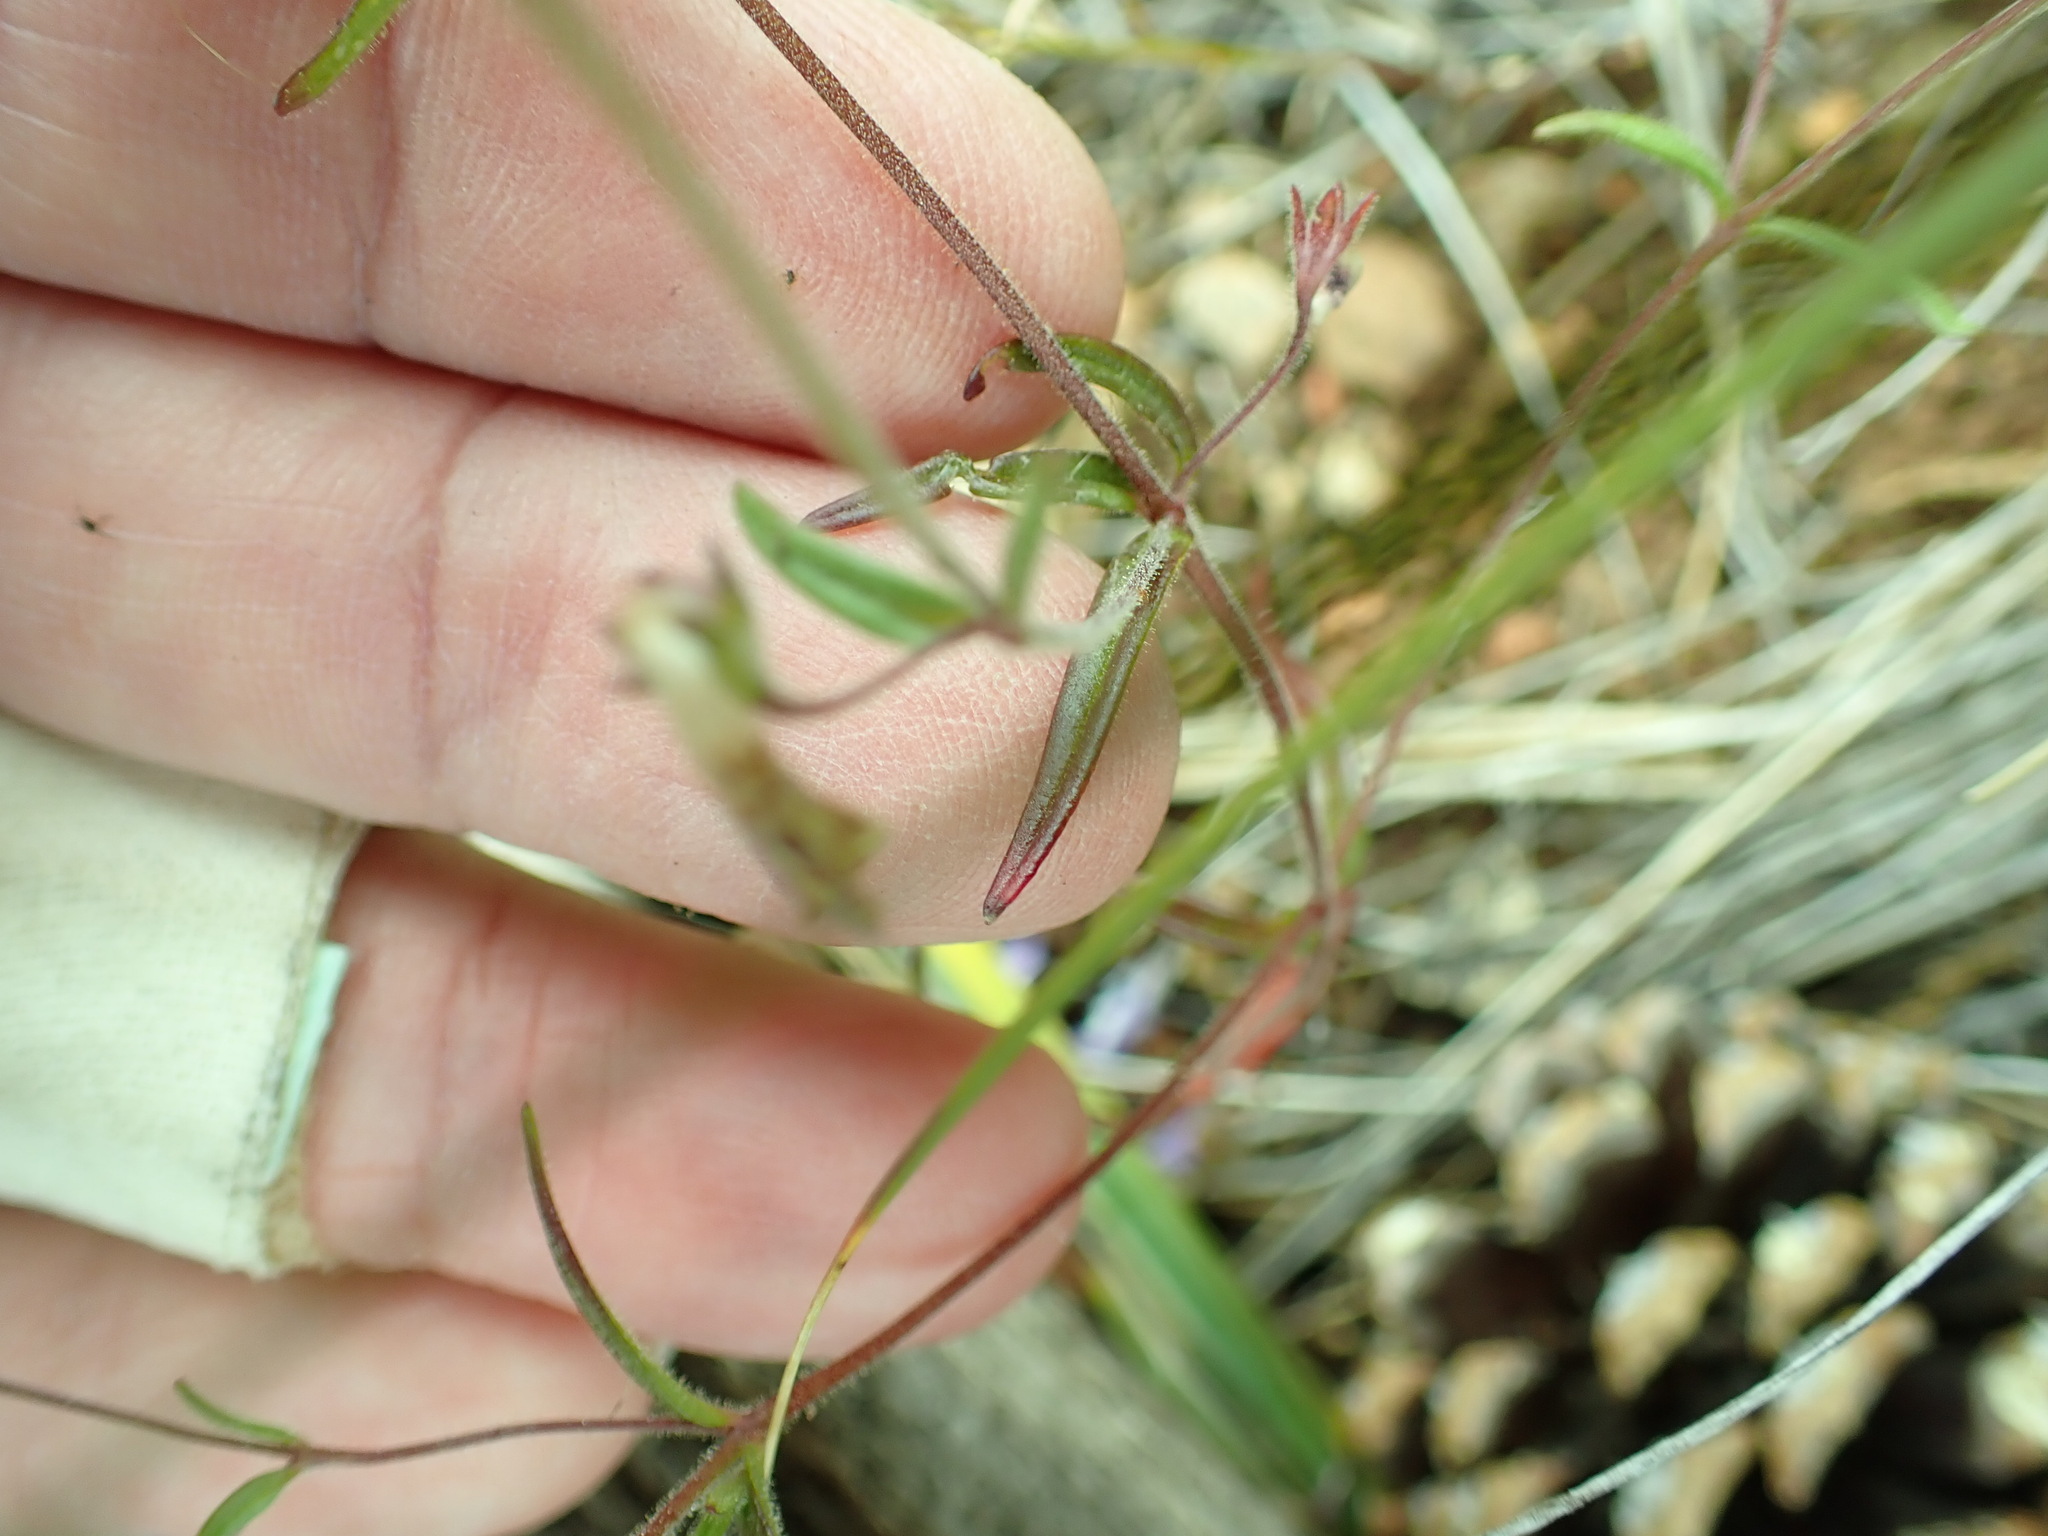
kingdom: Plantae
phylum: Tracheophyta
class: Magnoliopsida
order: Lamiales
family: Plantaginaceae
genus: Collinsia
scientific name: Collinsia linearis
